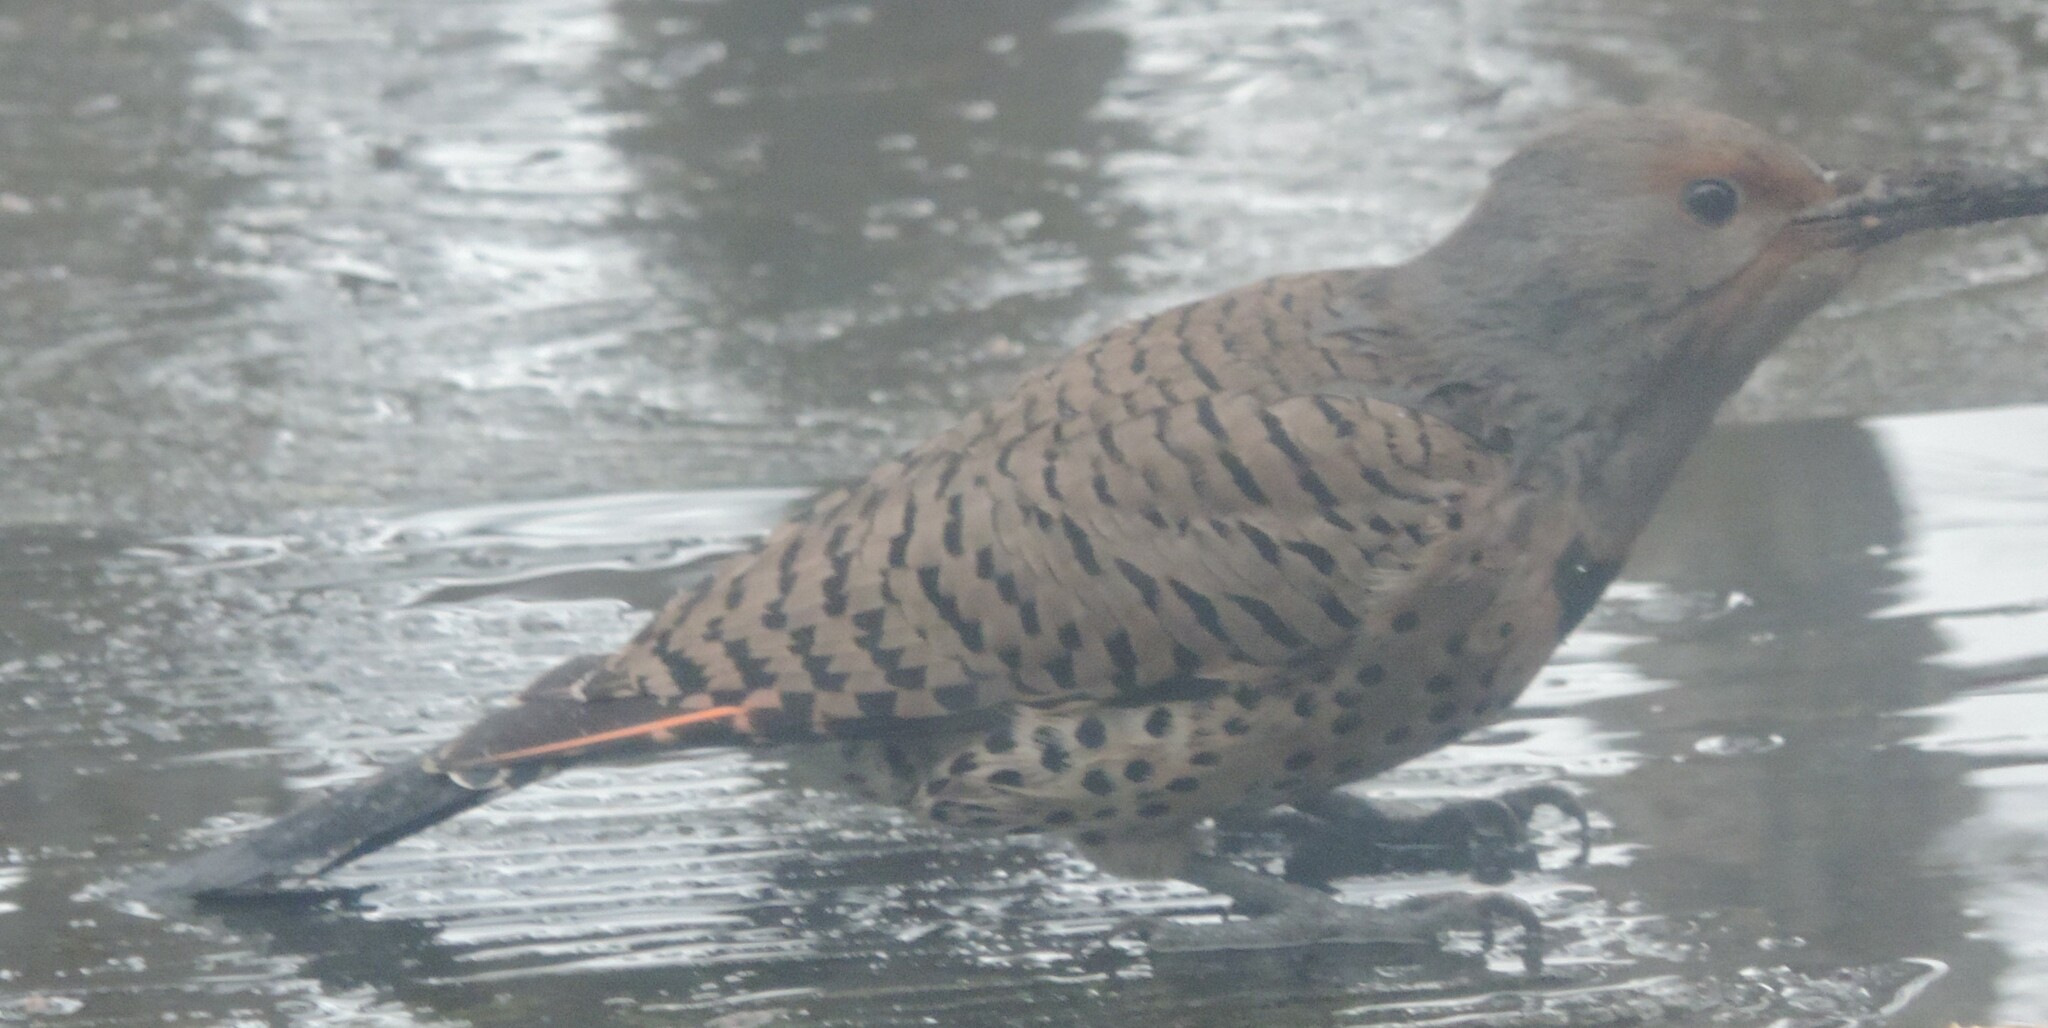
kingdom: Animalia
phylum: Chordata
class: Aves
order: Piciformes
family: Picidae
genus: Colaptes
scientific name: Colaptes auratus
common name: Northern flicker
